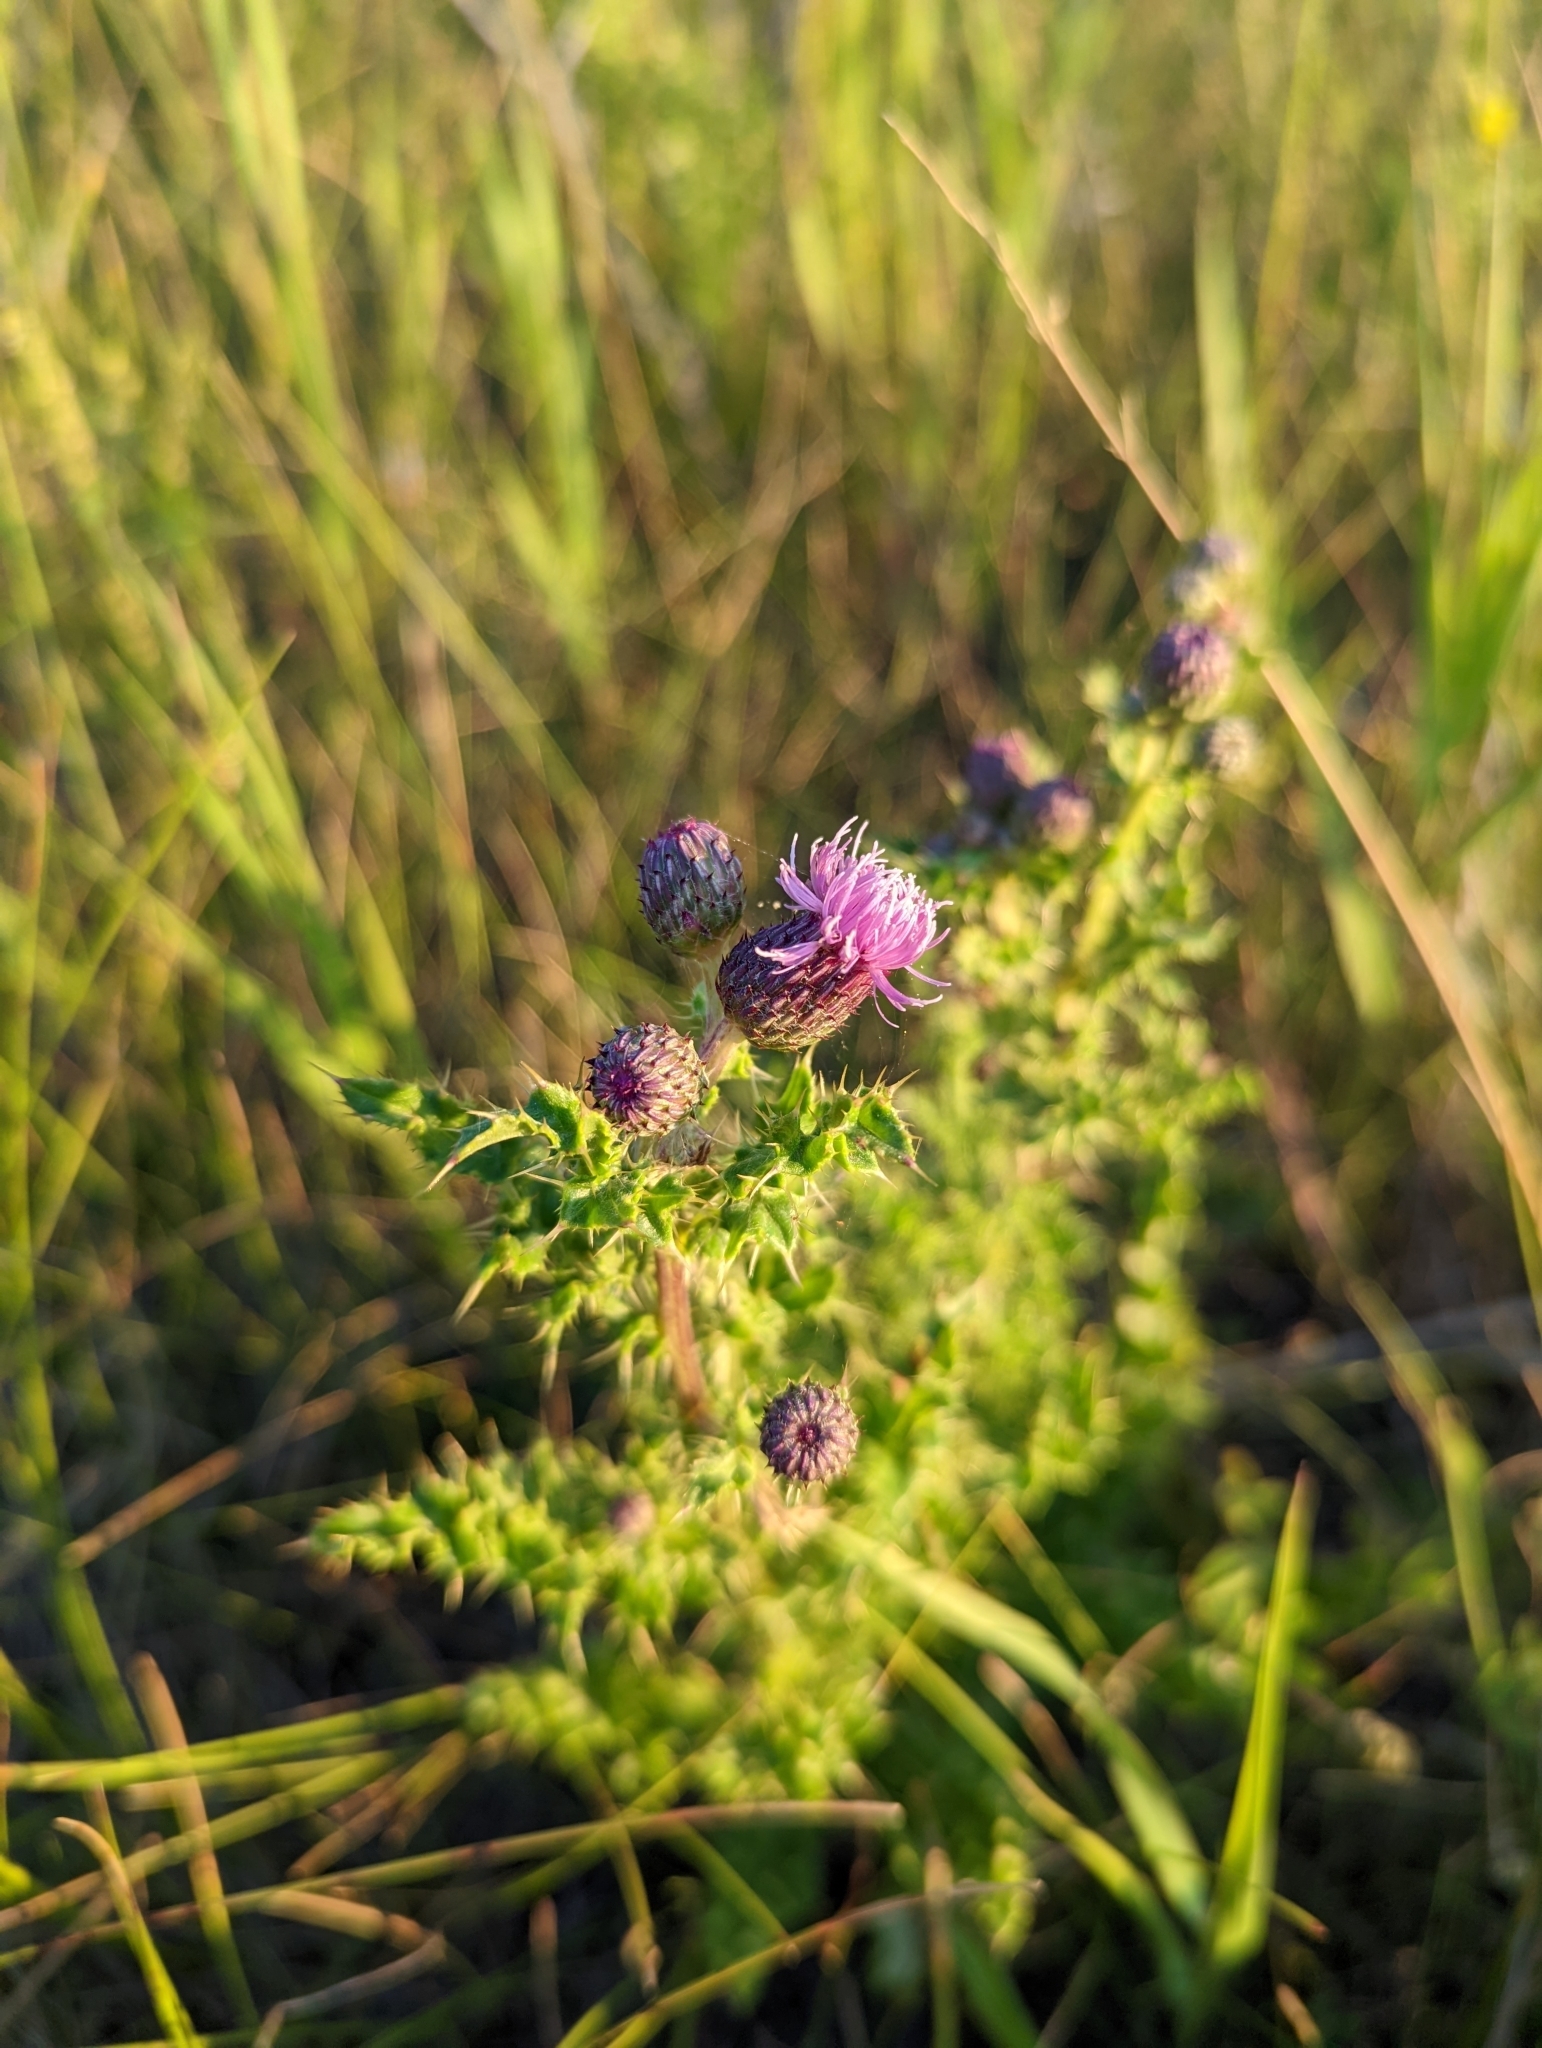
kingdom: Plantae
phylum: Tracheophyta
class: Magnoliopsida
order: Asterales
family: Asteraceae
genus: Cirsium
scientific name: Cirsium arvense
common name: Creeping thistle
